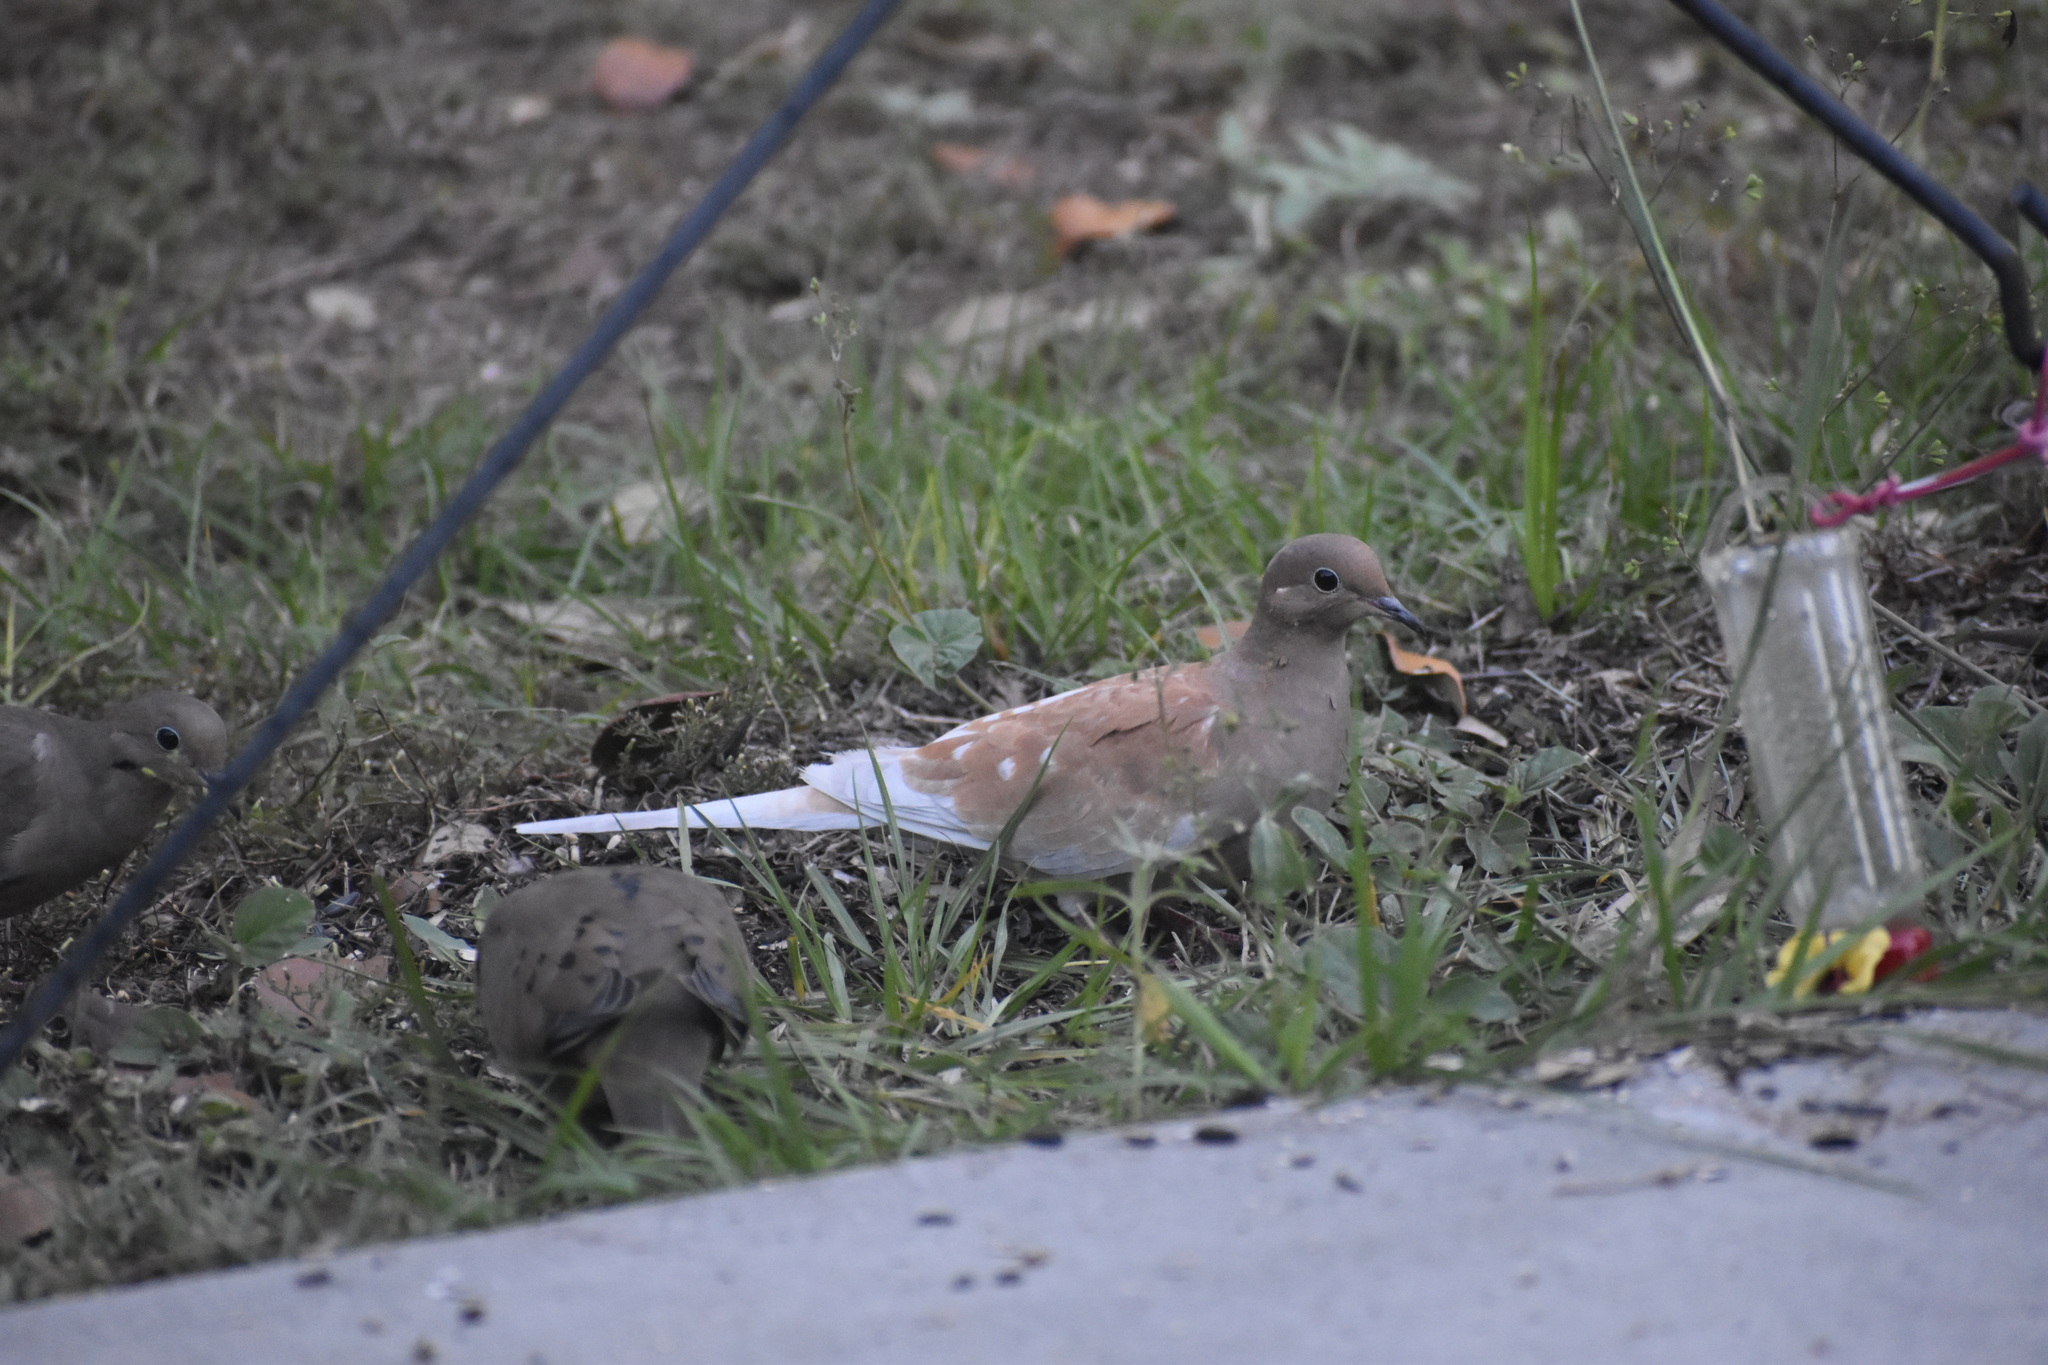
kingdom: Animalia
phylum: Chordata
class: Aves
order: Columbiformes
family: Columbidae
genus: Zenaida
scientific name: Zenaida macroura
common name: Mourning dove
